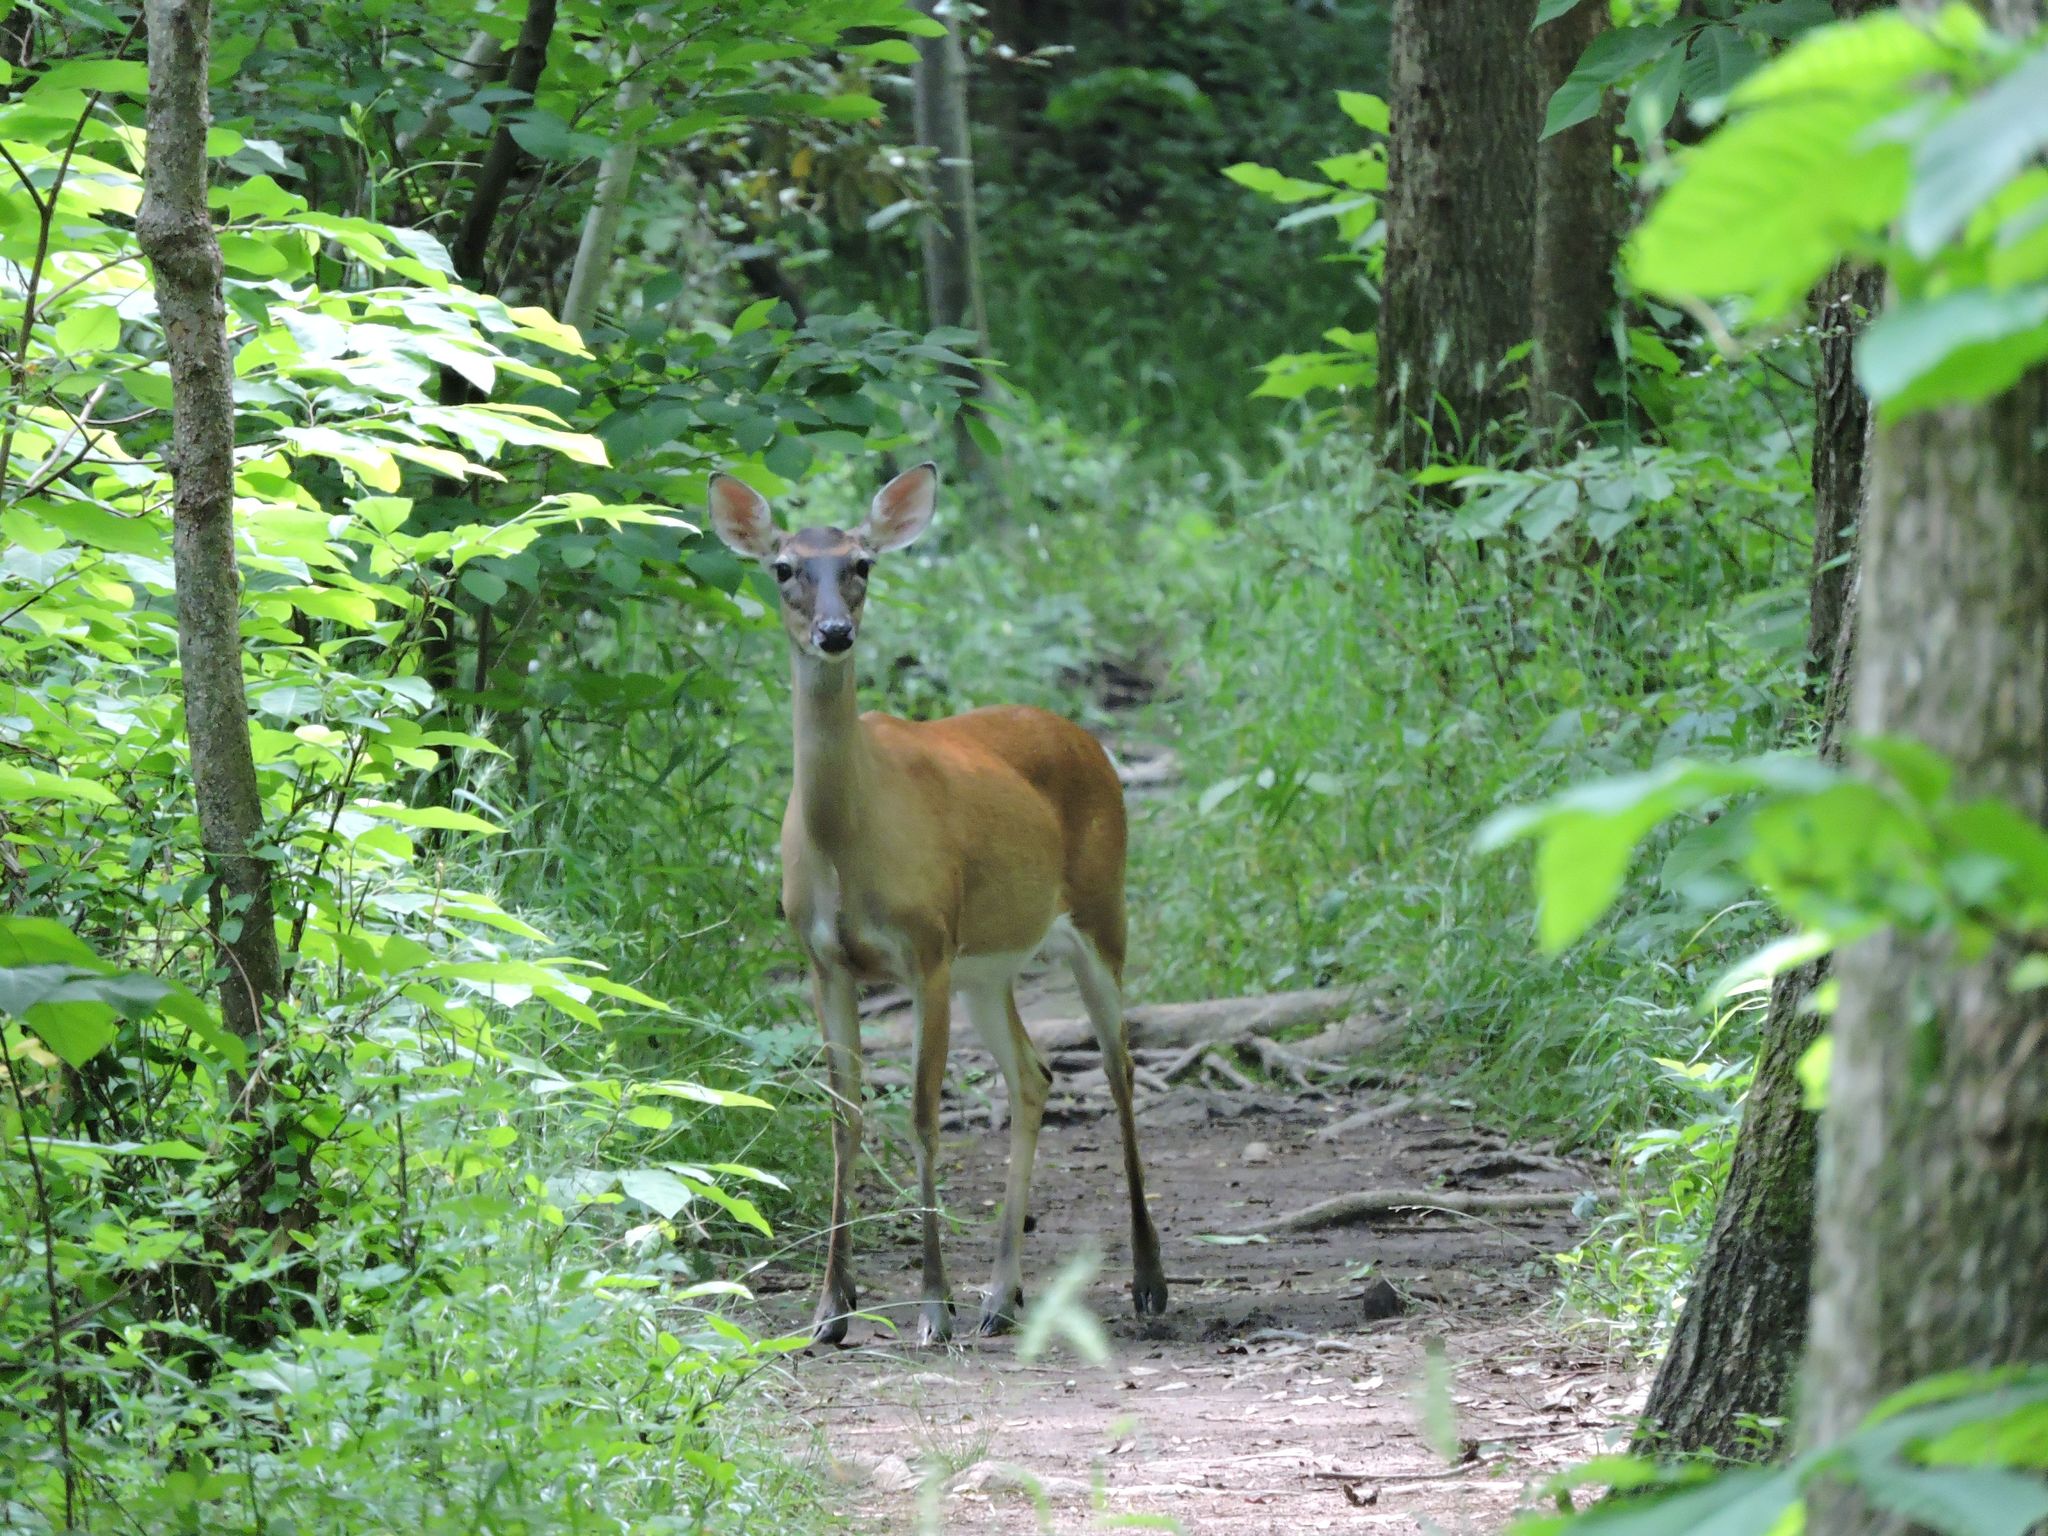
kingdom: Animalia
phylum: Chordata
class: Mammalia
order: Artiodactyla
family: Cervidae
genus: Odocoileus
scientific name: Odocoileus virginianus
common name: White-tailed deer
